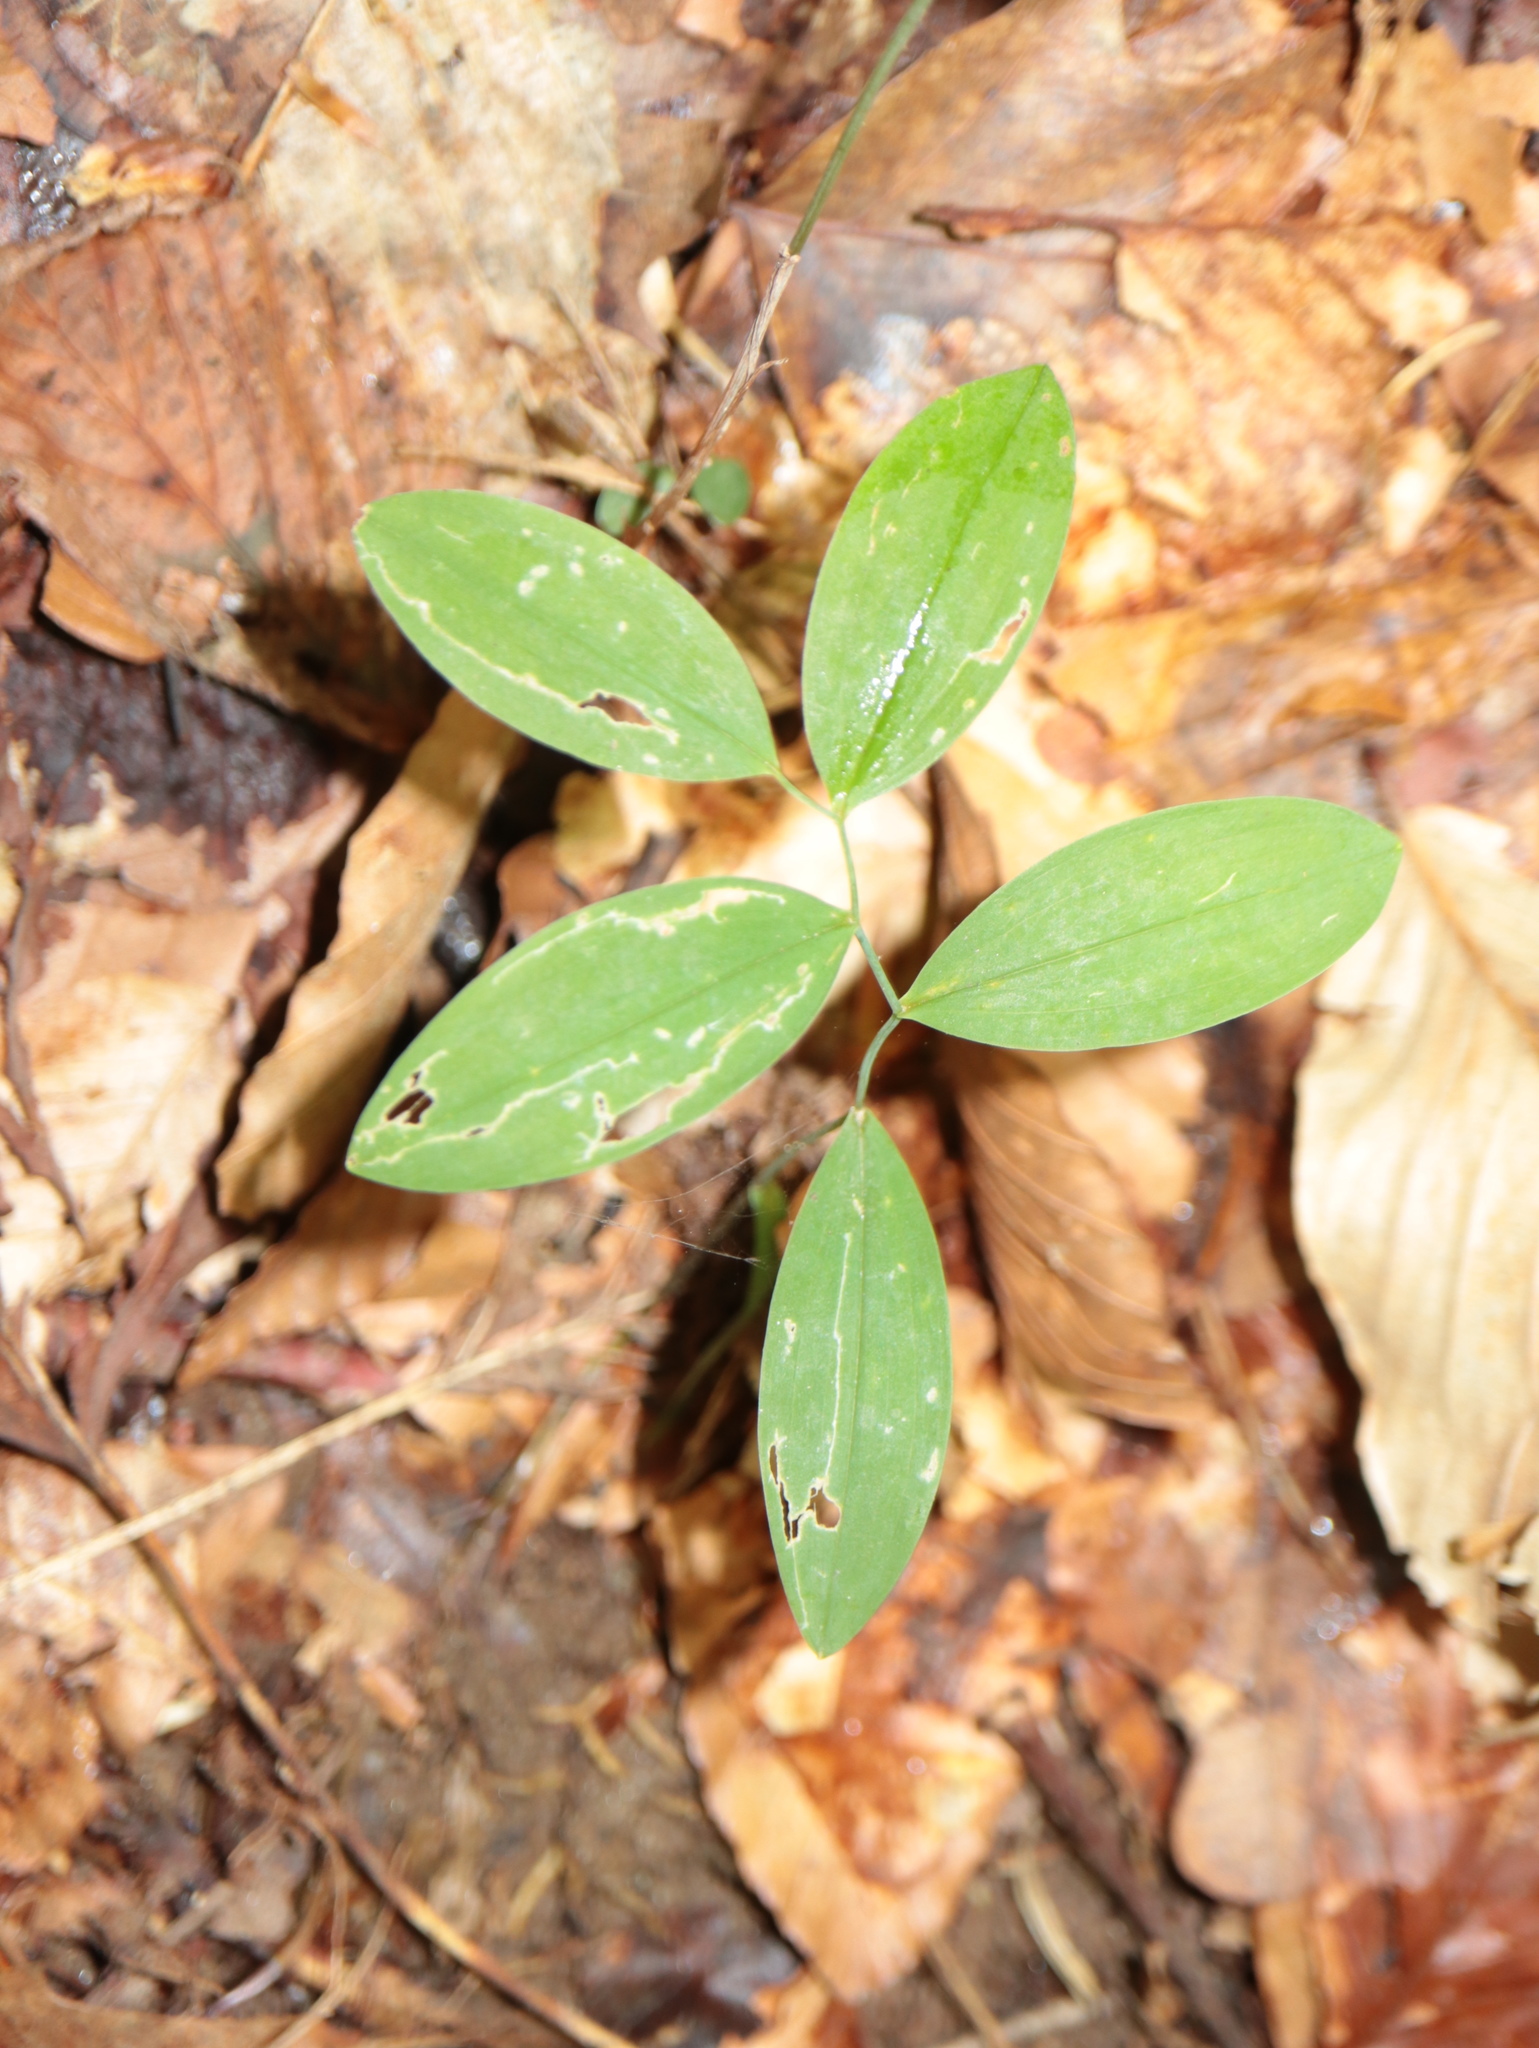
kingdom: Plantae
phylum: Tracheophyta
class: Liliopsida
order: Liliales
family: Colchicaceae
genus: Uvularia
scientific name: Uvularia sessilifolia
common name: Straw-lily
